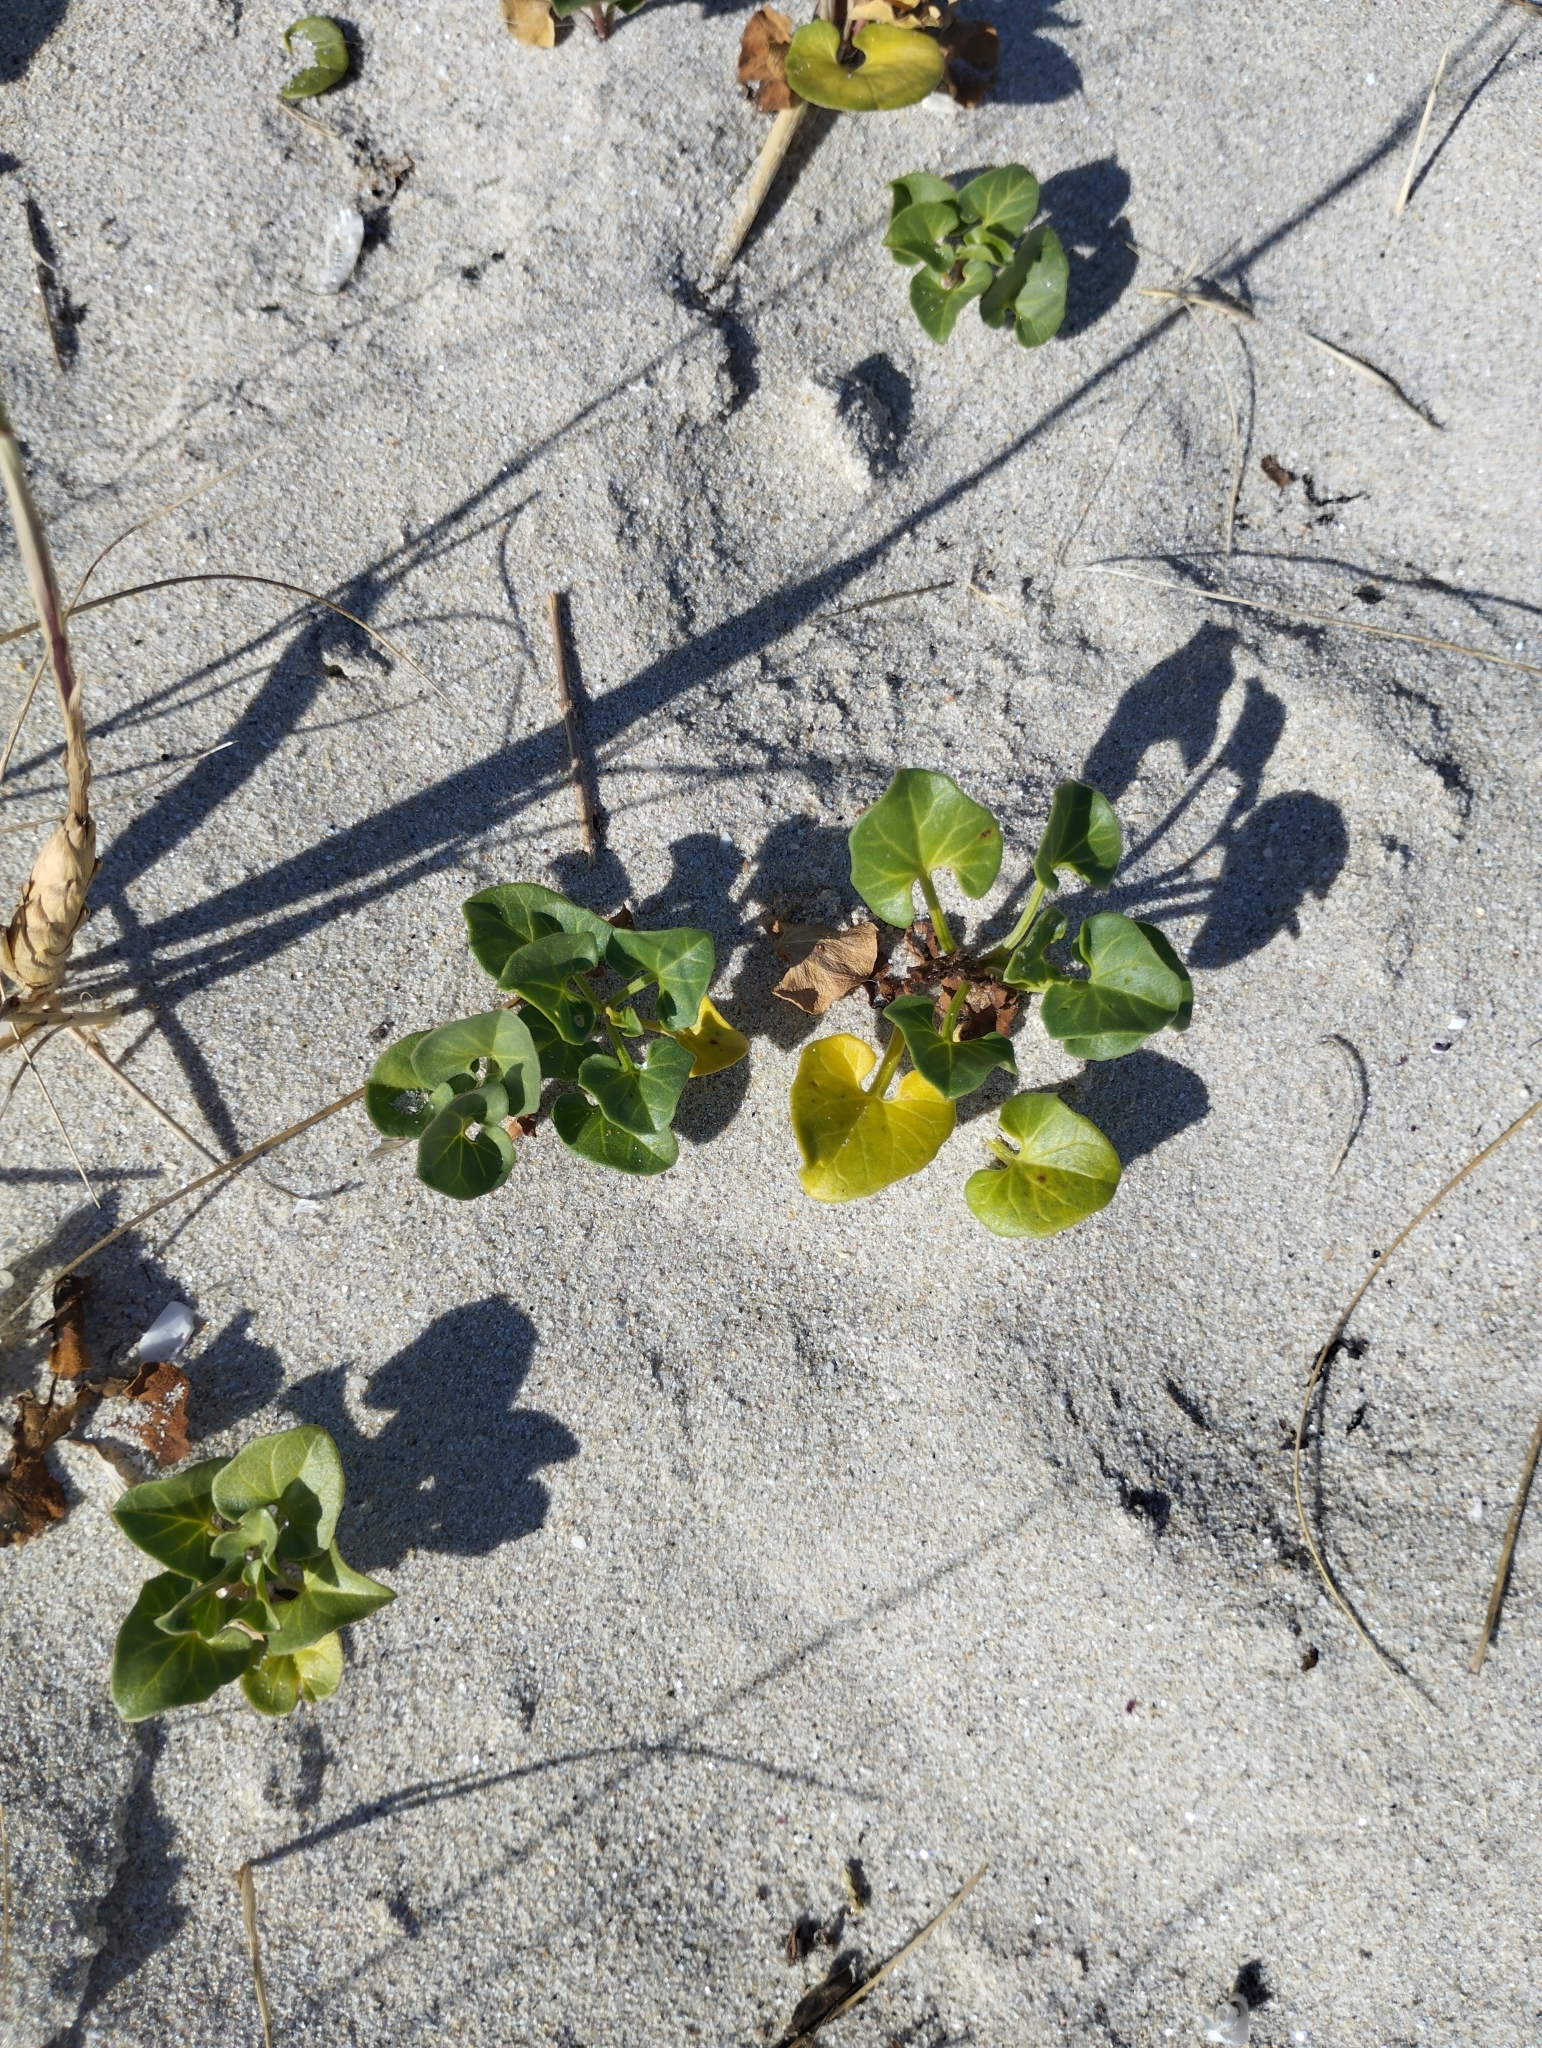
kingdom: Plantae
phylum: Tracheophyta
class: Magnoliopsida
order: Solanales
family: Convolvulaceae
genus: Calystegia
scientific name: Calystegia soldanella
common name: Sea bindweed
